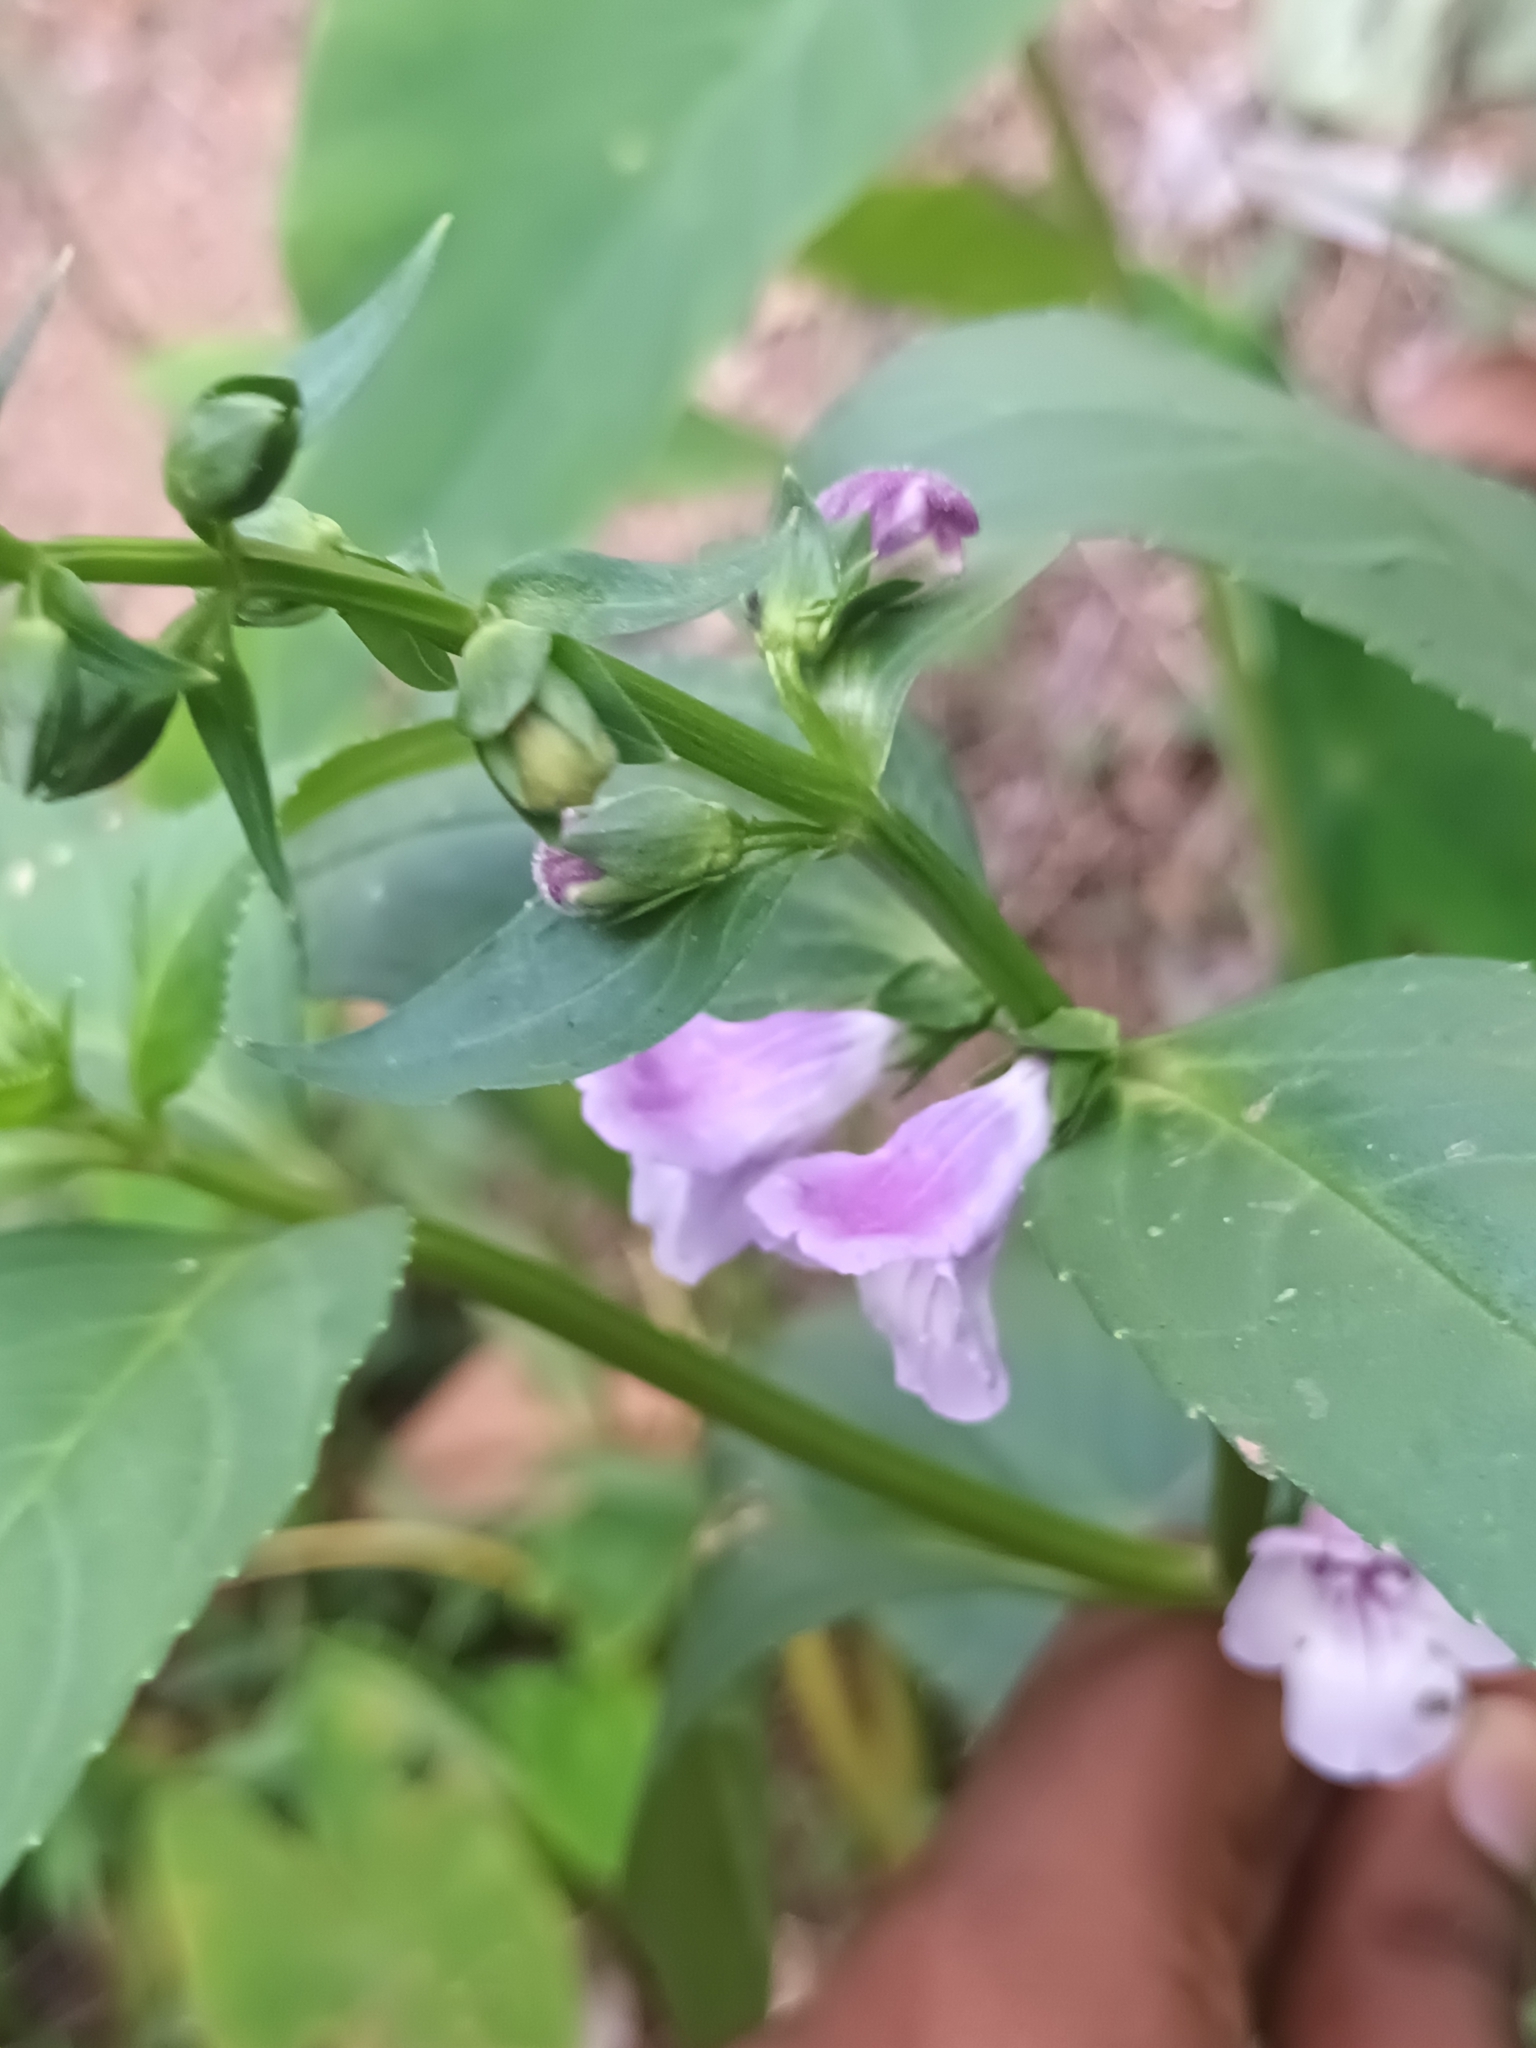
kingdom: Plantae
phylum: Tracheophyta
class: Magnoliopsida
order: Lamiales
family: Linderniaceae
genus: Artanema
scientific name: Artanema longifolium
